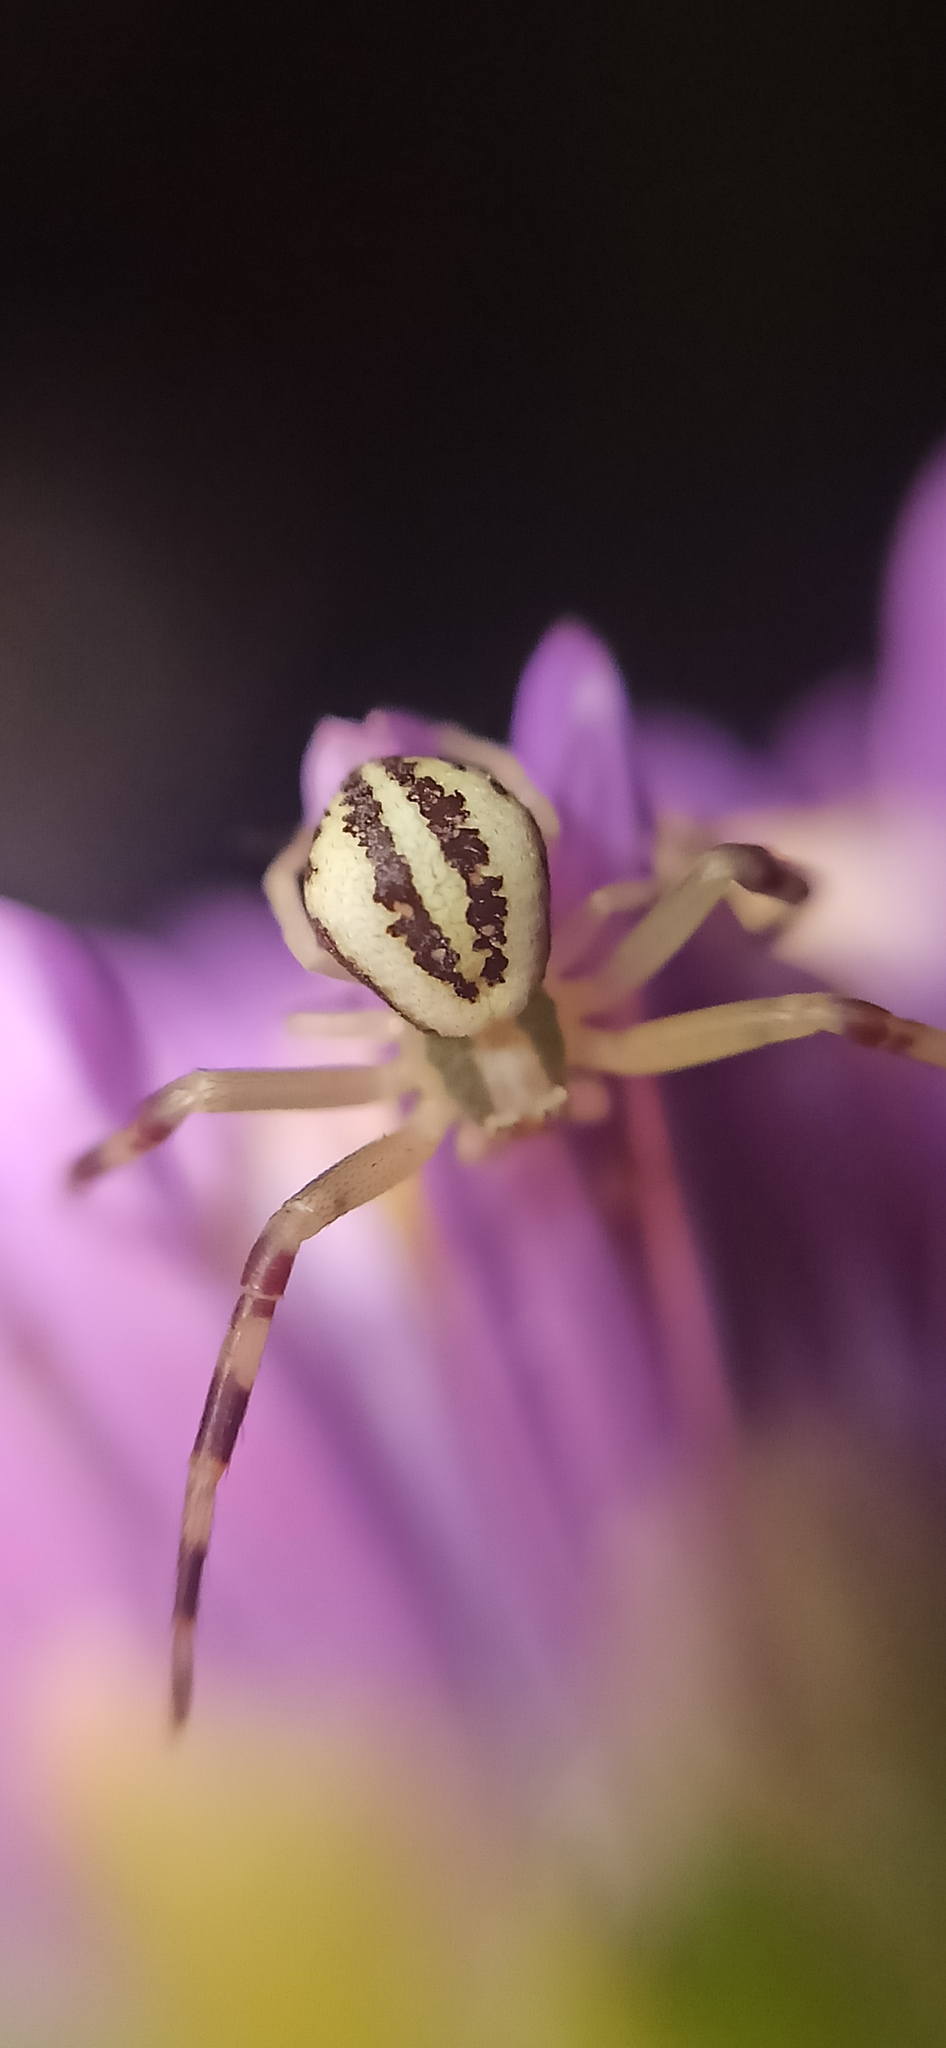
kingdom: Animalia
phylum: Arthropoda
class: Arachnida
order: Araneae
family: Thomisidae
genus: Misumena
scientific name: Misumena vatia
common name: Goldenrod crab spider
